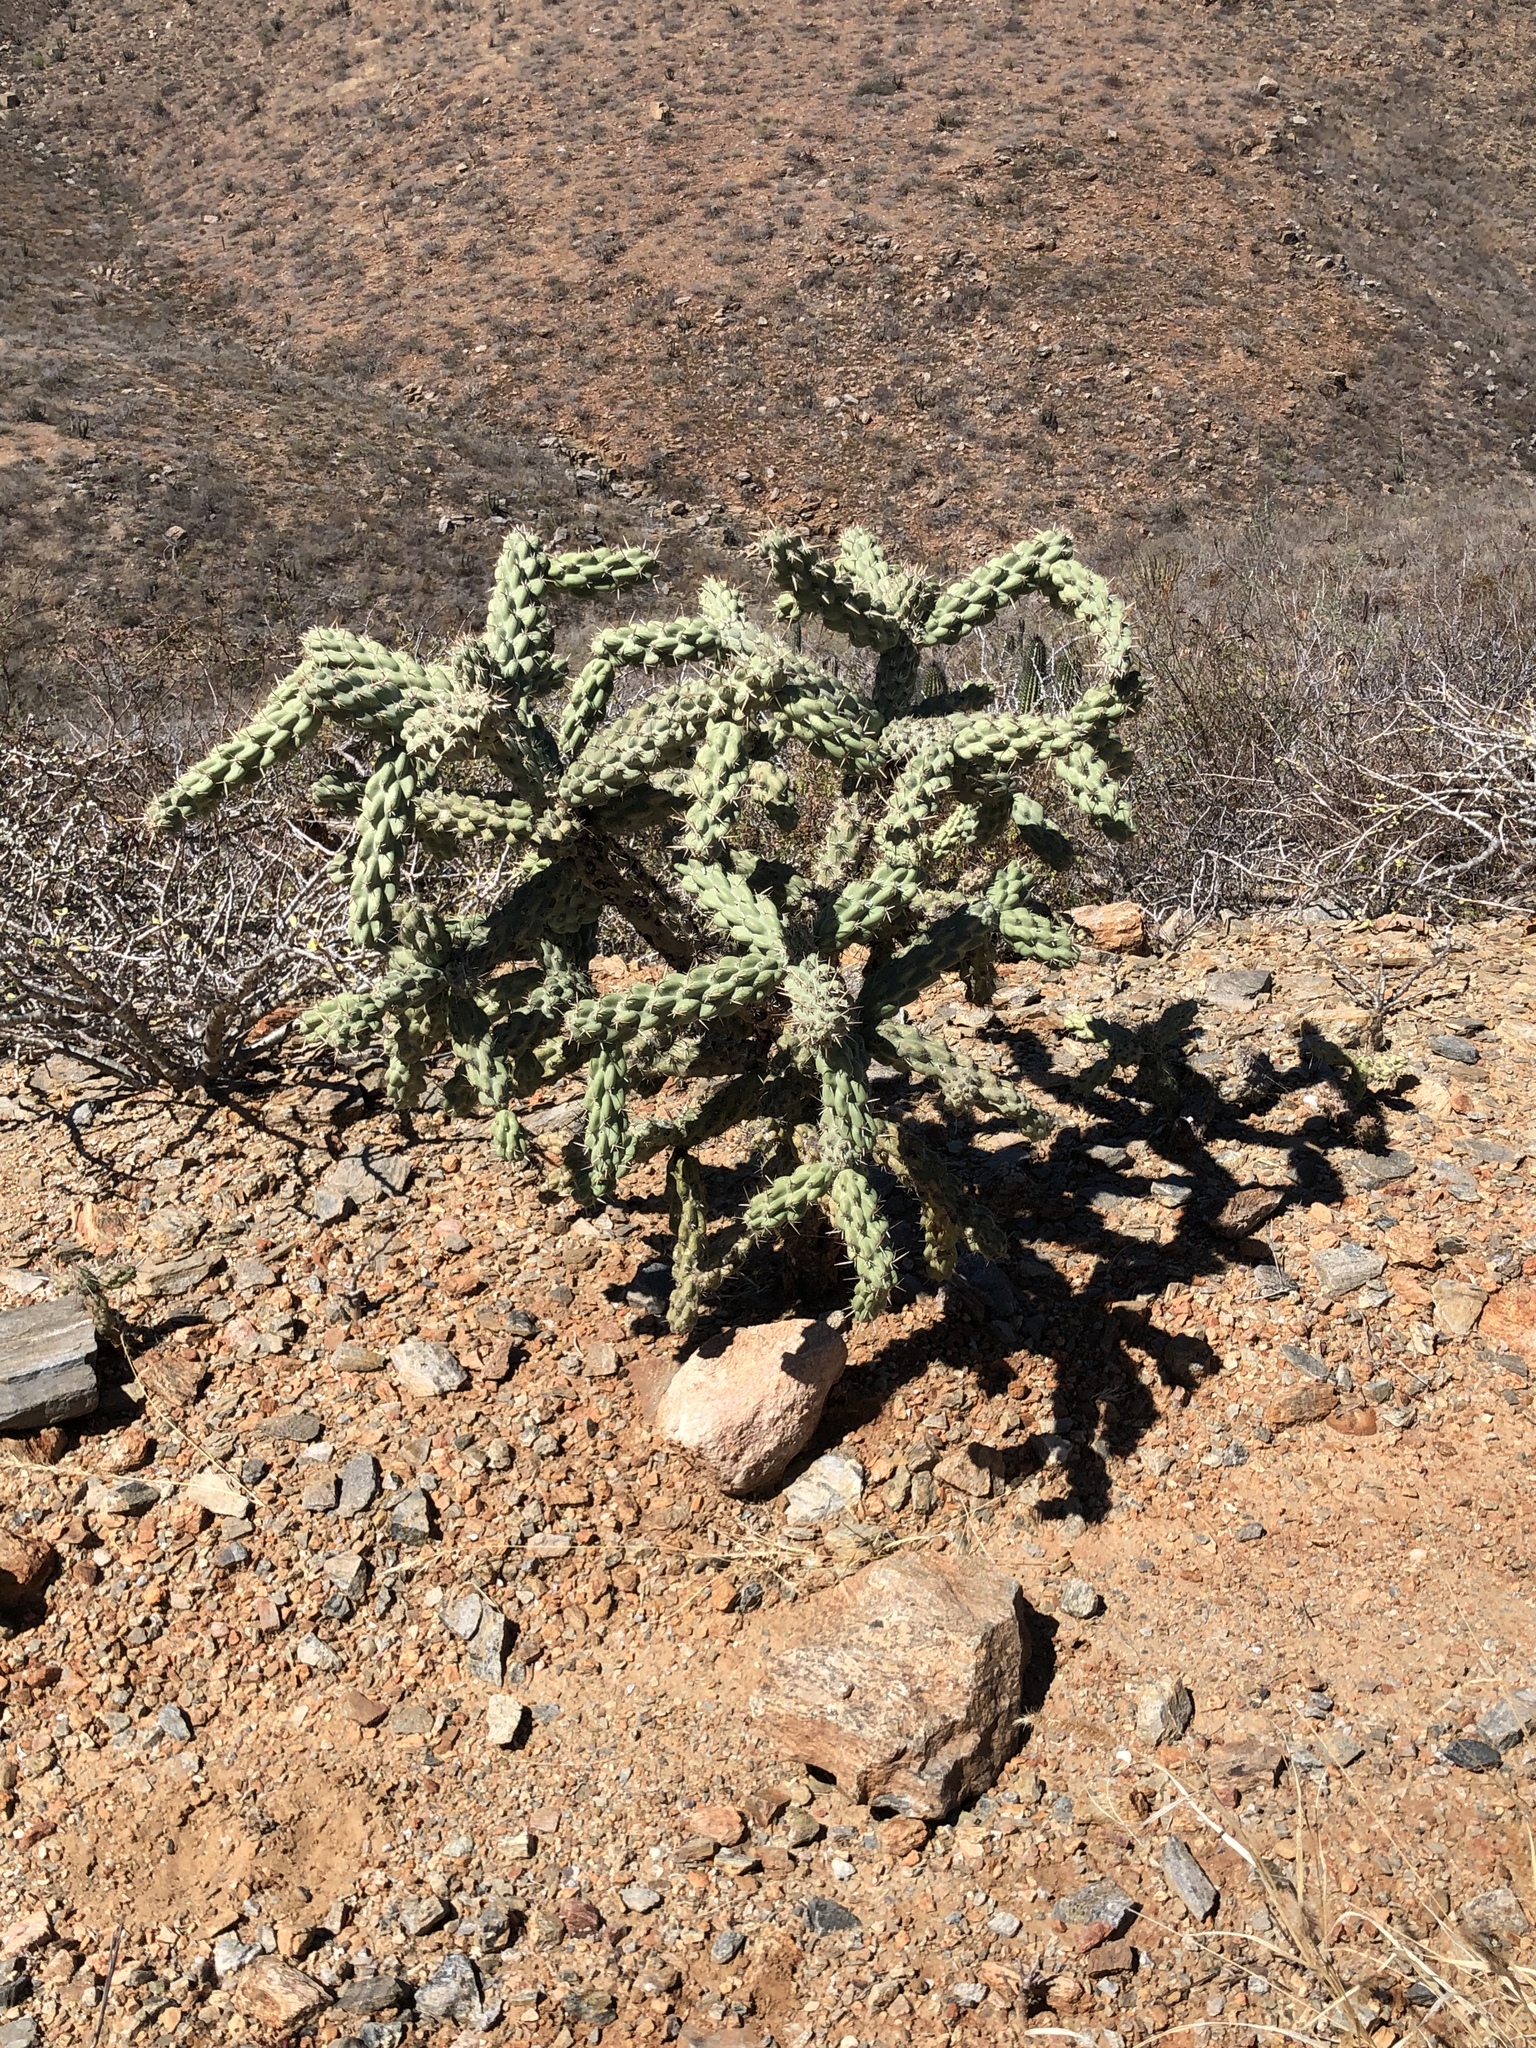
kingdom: Plantae
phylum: Tracheophyta
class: Magnoliopsida
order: Caryophyllales
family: Cactaceae
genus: Cylindropuntia
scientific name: Cylindropuntia cholla
